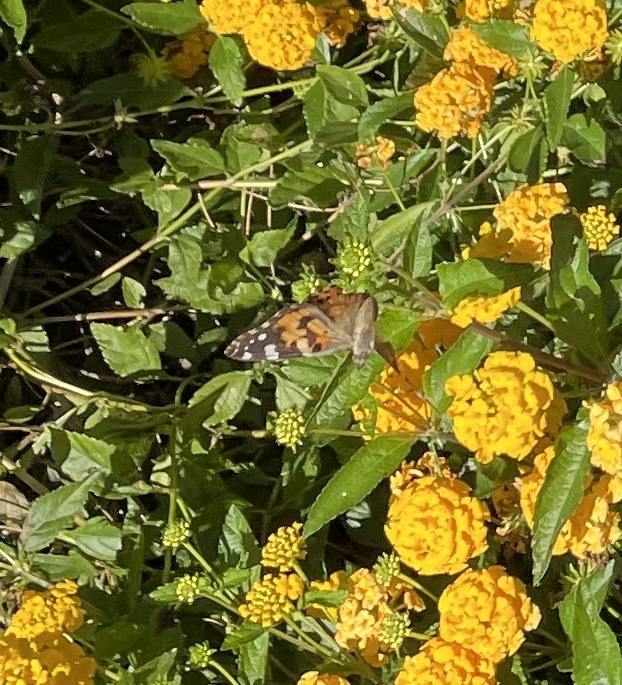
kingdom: Animalia
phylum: Arthropoda
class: Insecta
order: Lepidoptera
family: Nymphalidae
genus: Vanessa
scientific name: Vanessa cardui
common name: Painted lady
